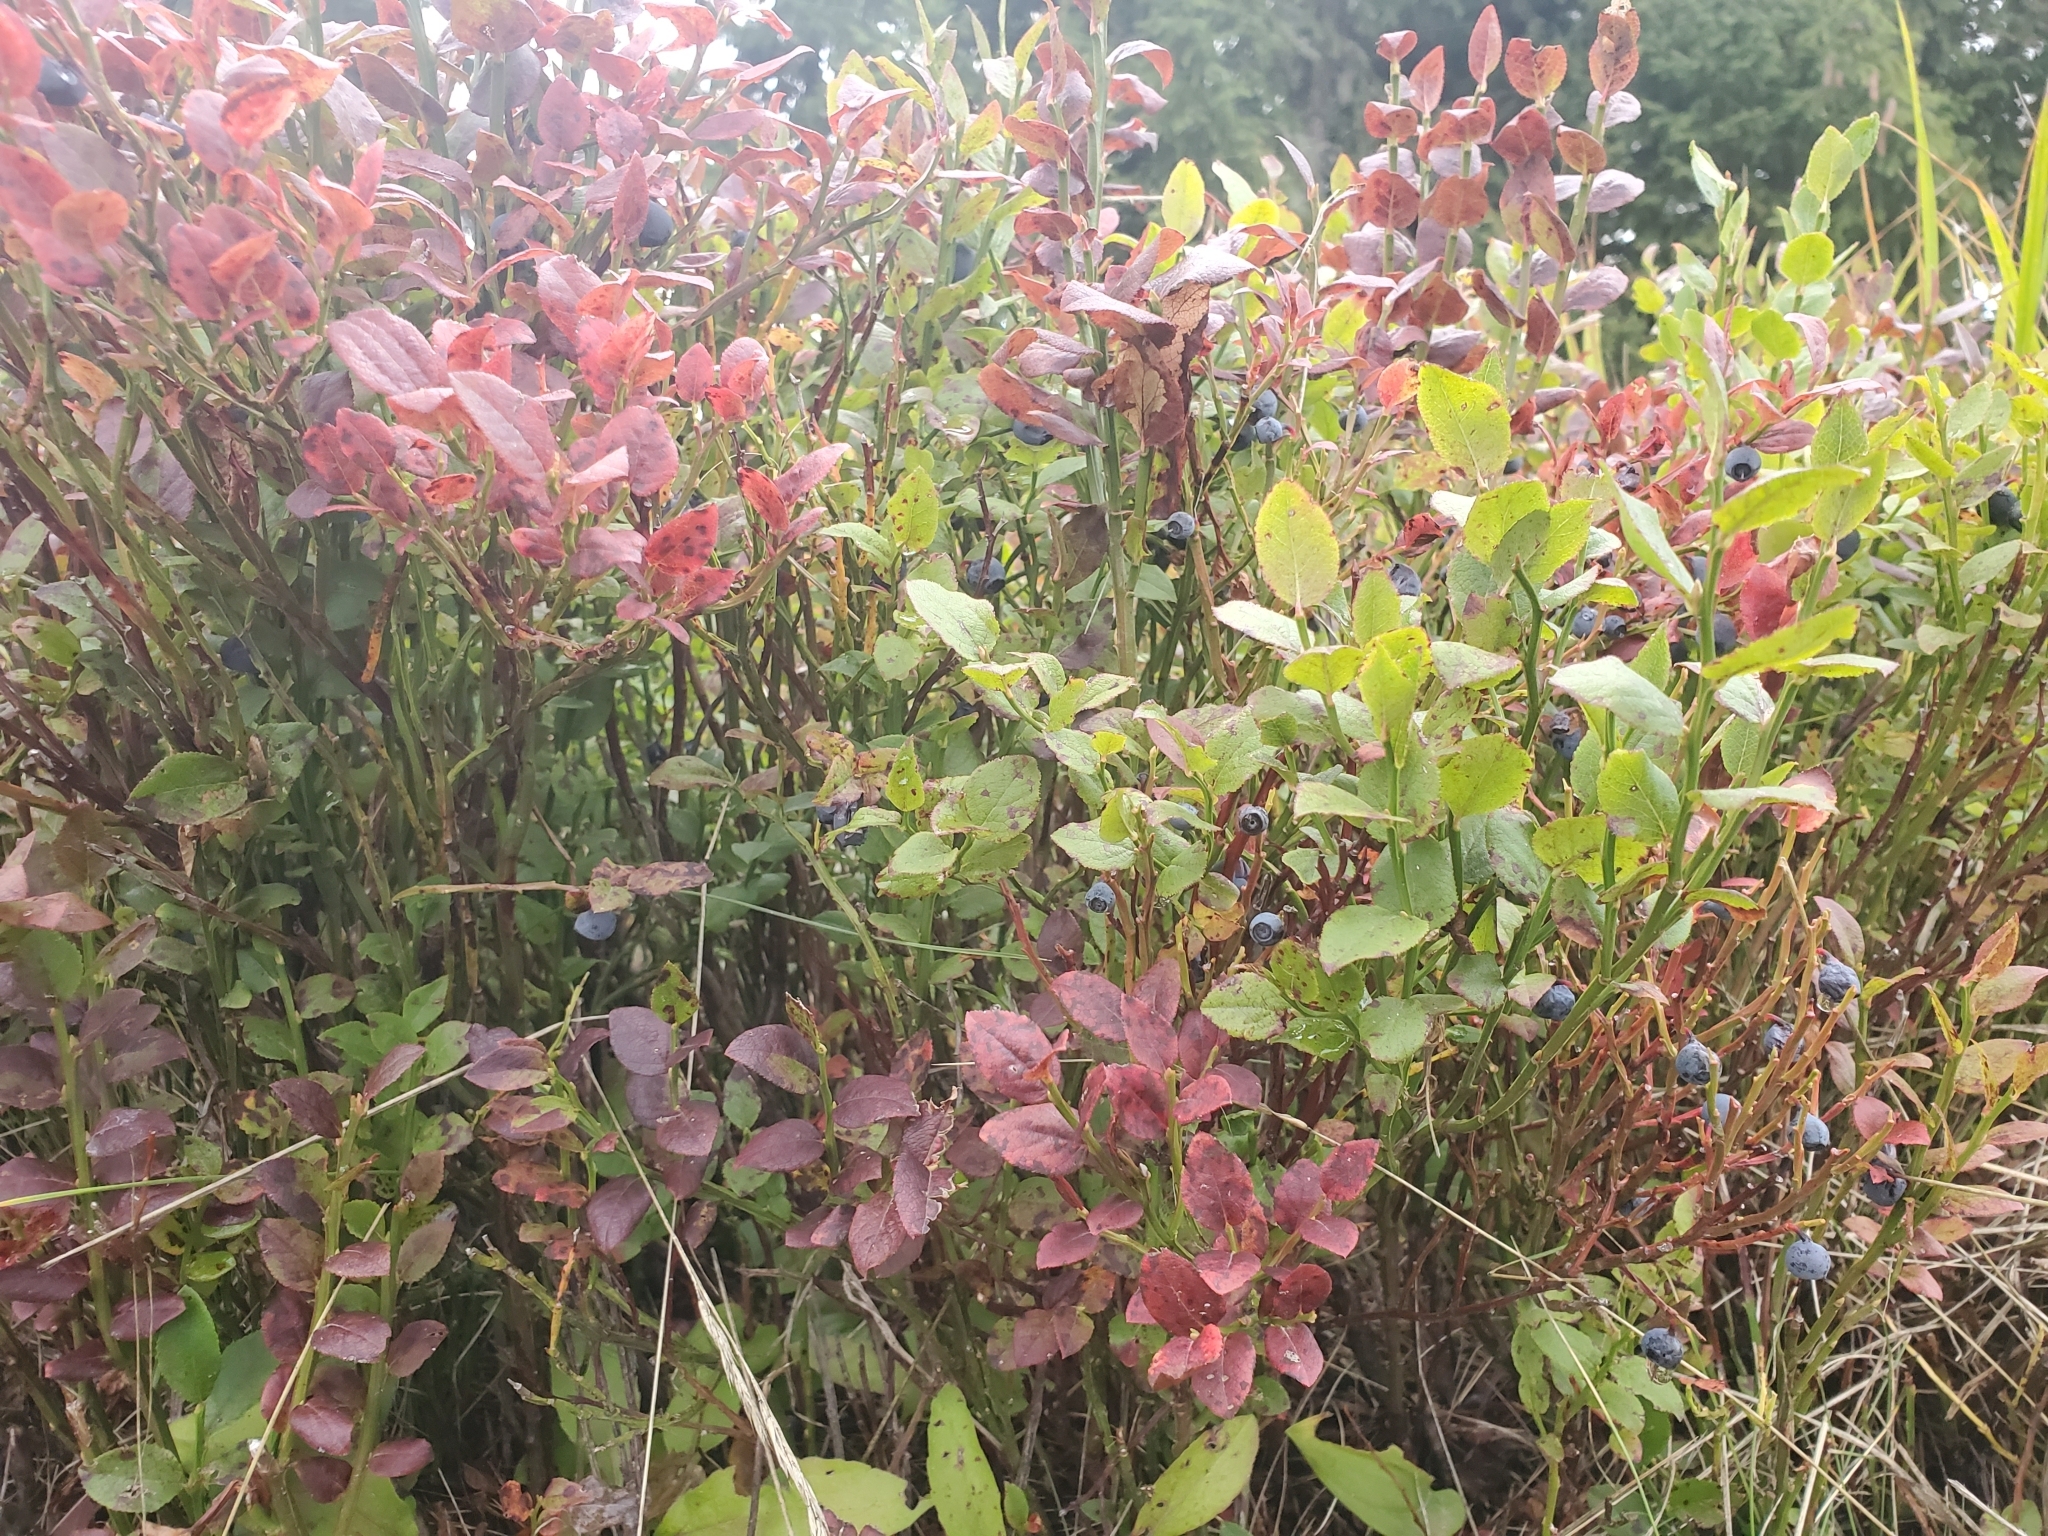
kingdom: Plantae
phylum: Tracheophyta
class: Magnoliopsida
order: Ericales
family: Ericaceae
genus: Vaccinium
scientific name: Vaccinium myrtillus
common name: Bilberry
